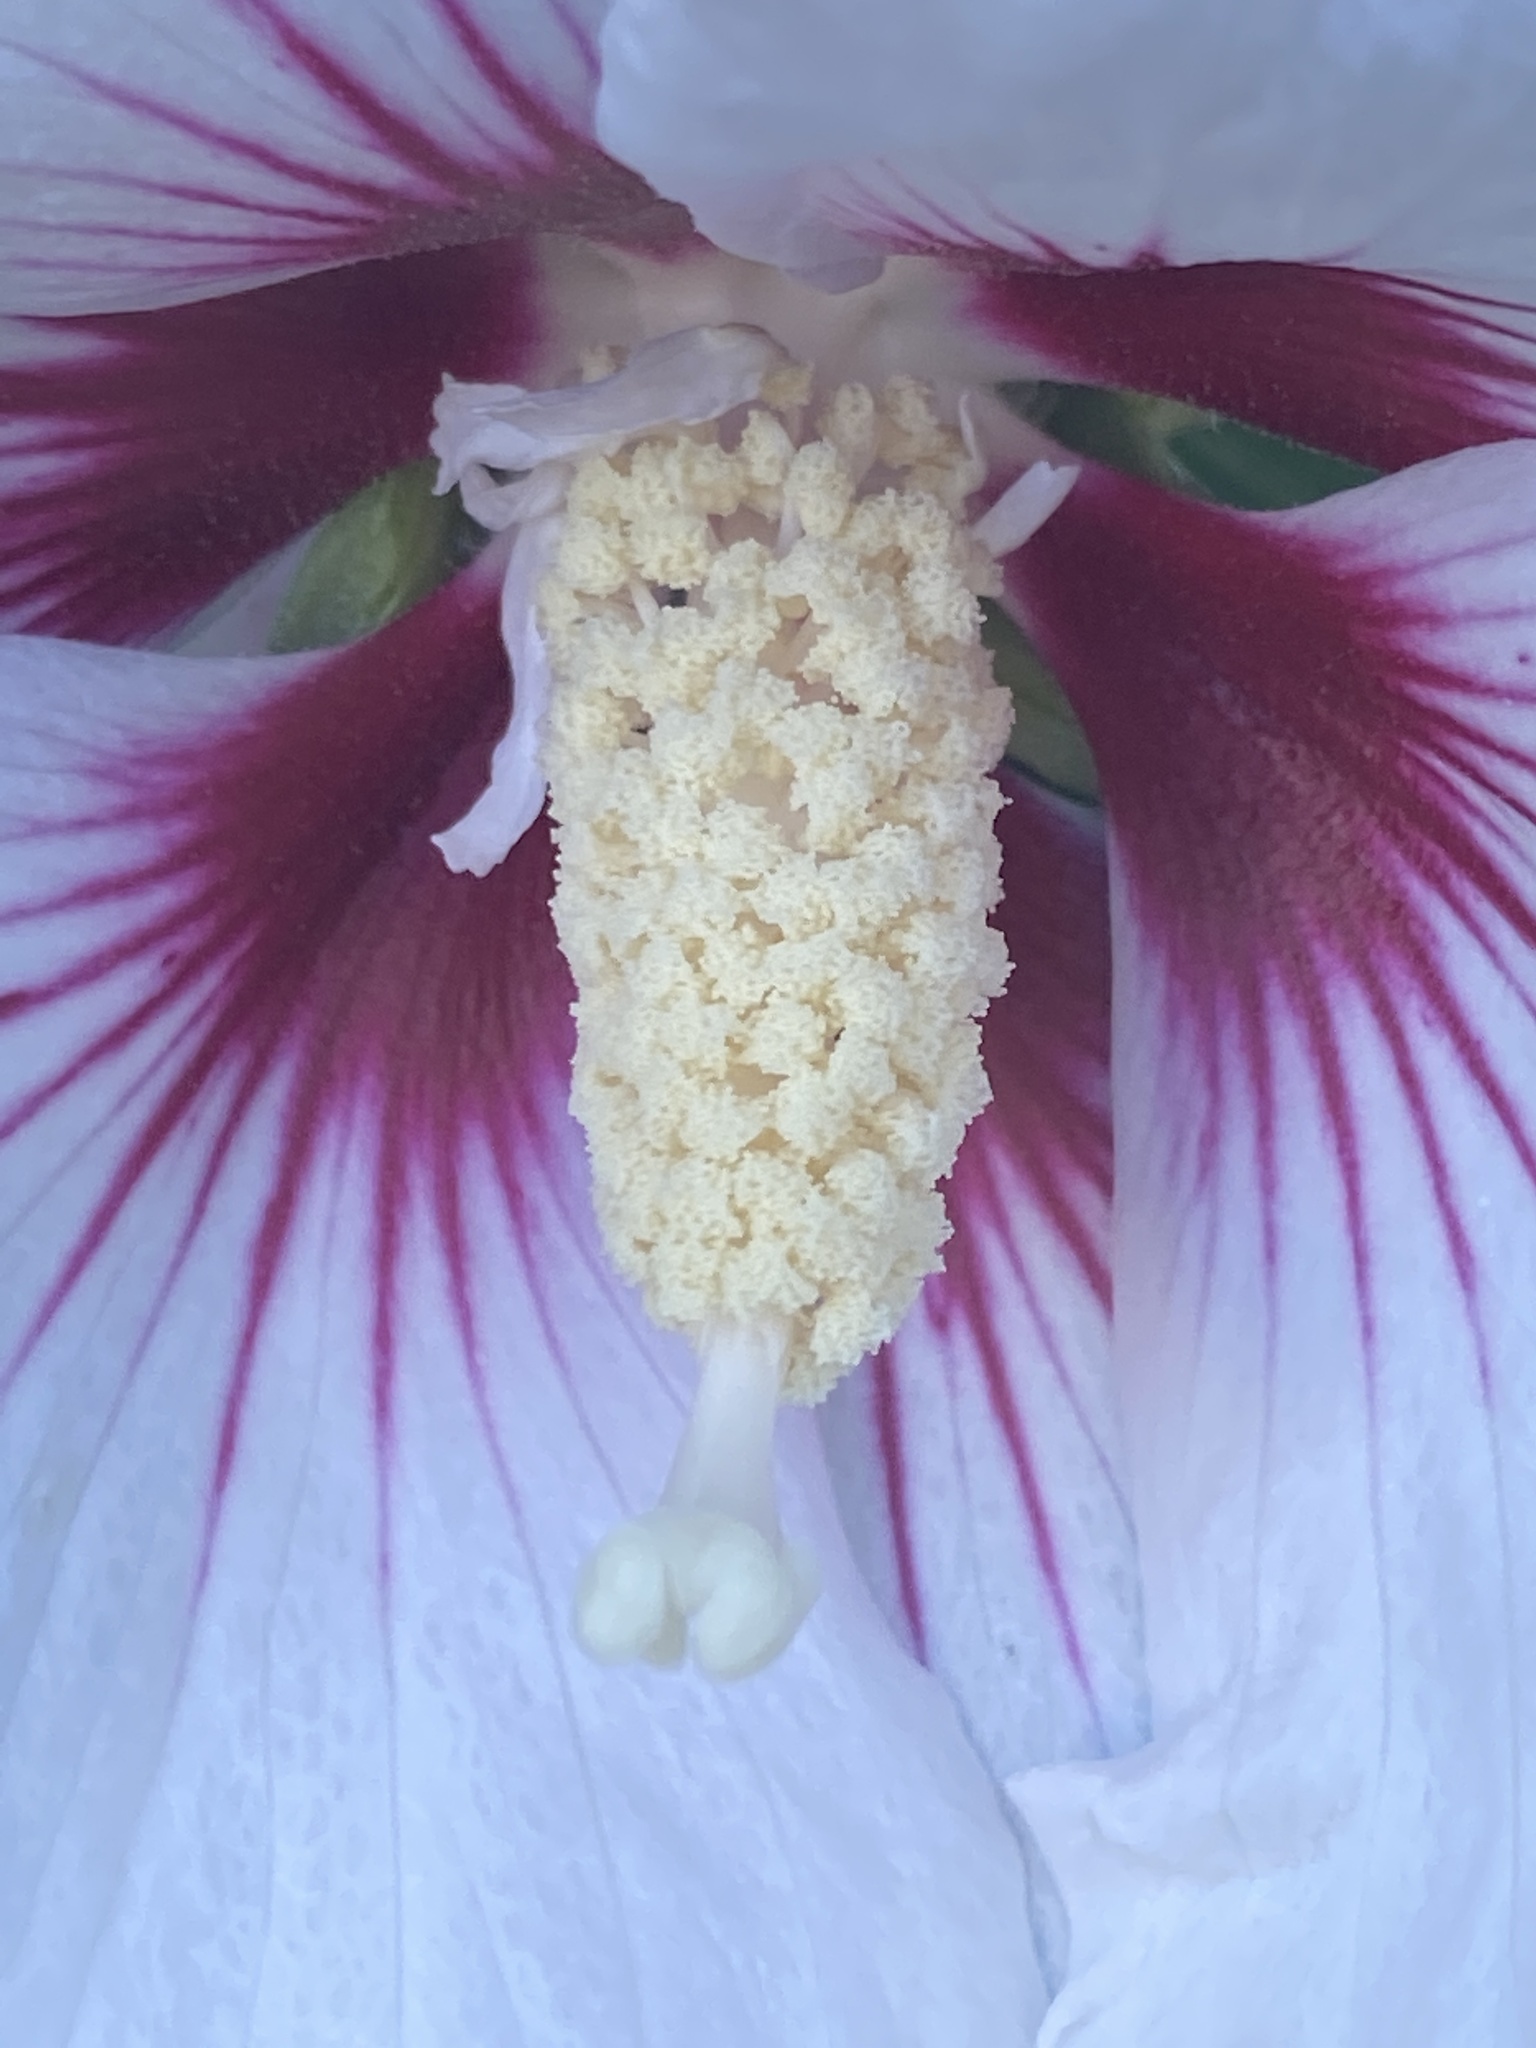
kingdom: Plantae
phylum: Tracheophyta
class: Magnoliopsida
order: Malvales
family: Malvaceae
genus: Hibiscus
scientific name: Hibiscus syriacus
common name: Syrian ketmia
